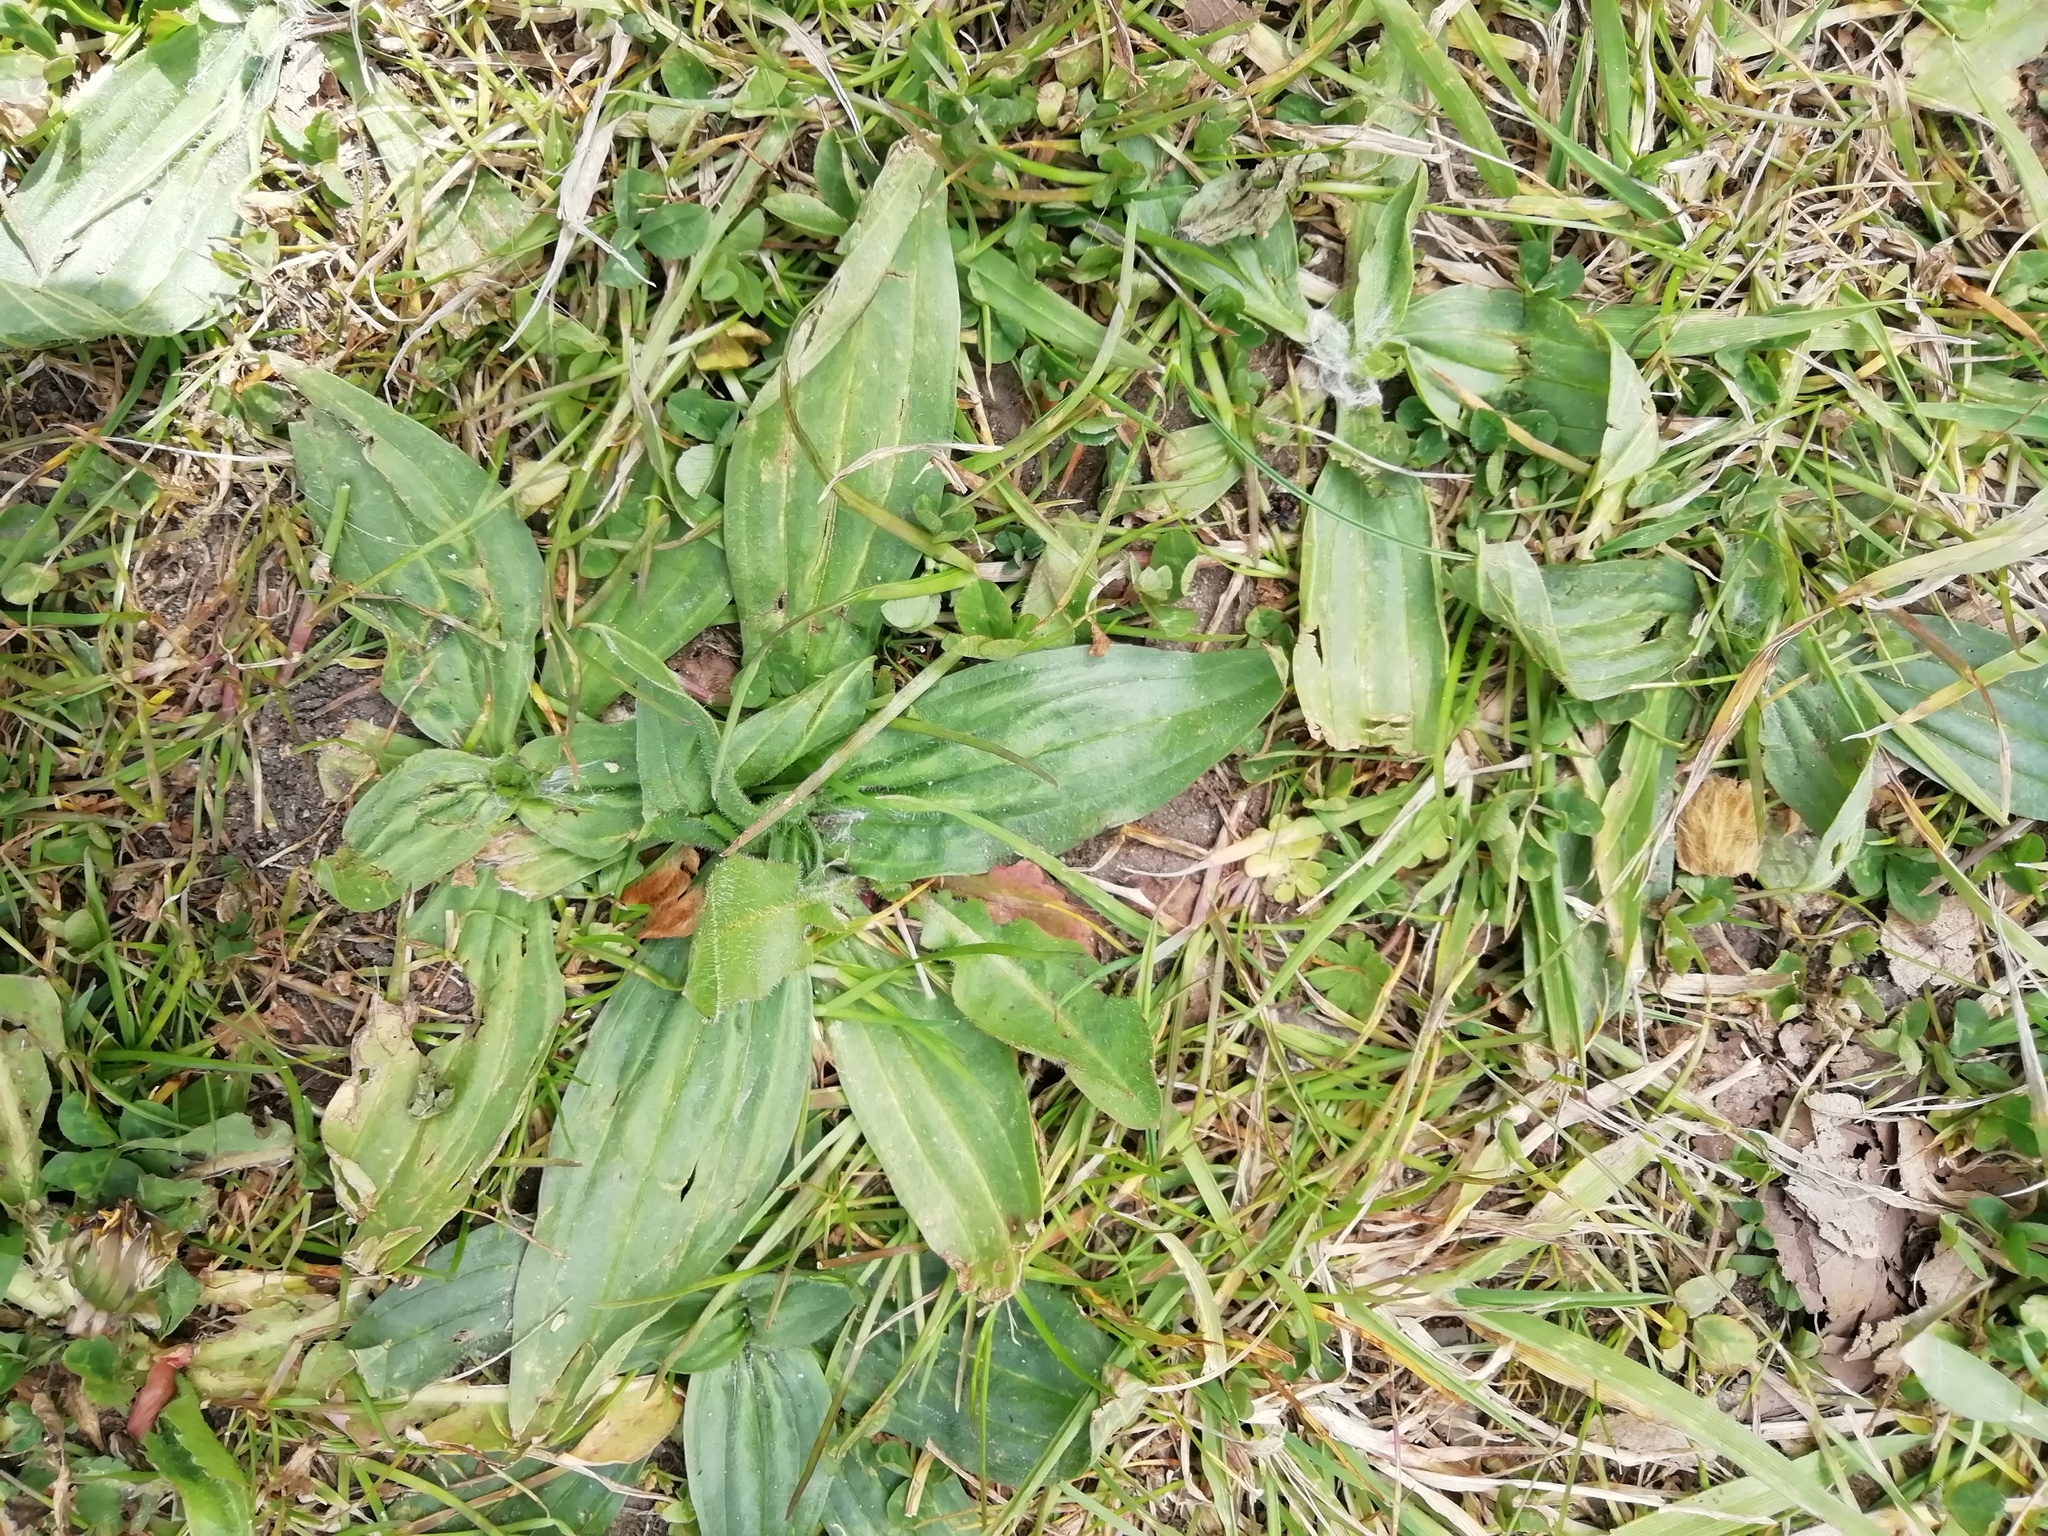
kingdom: Plantae
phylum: Tracheophyta
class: Magnoliopsida
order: Lamiales
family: Plantaginaceae
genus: Plantago
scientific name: Plantago lanceolata
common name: Ribwort plantain
